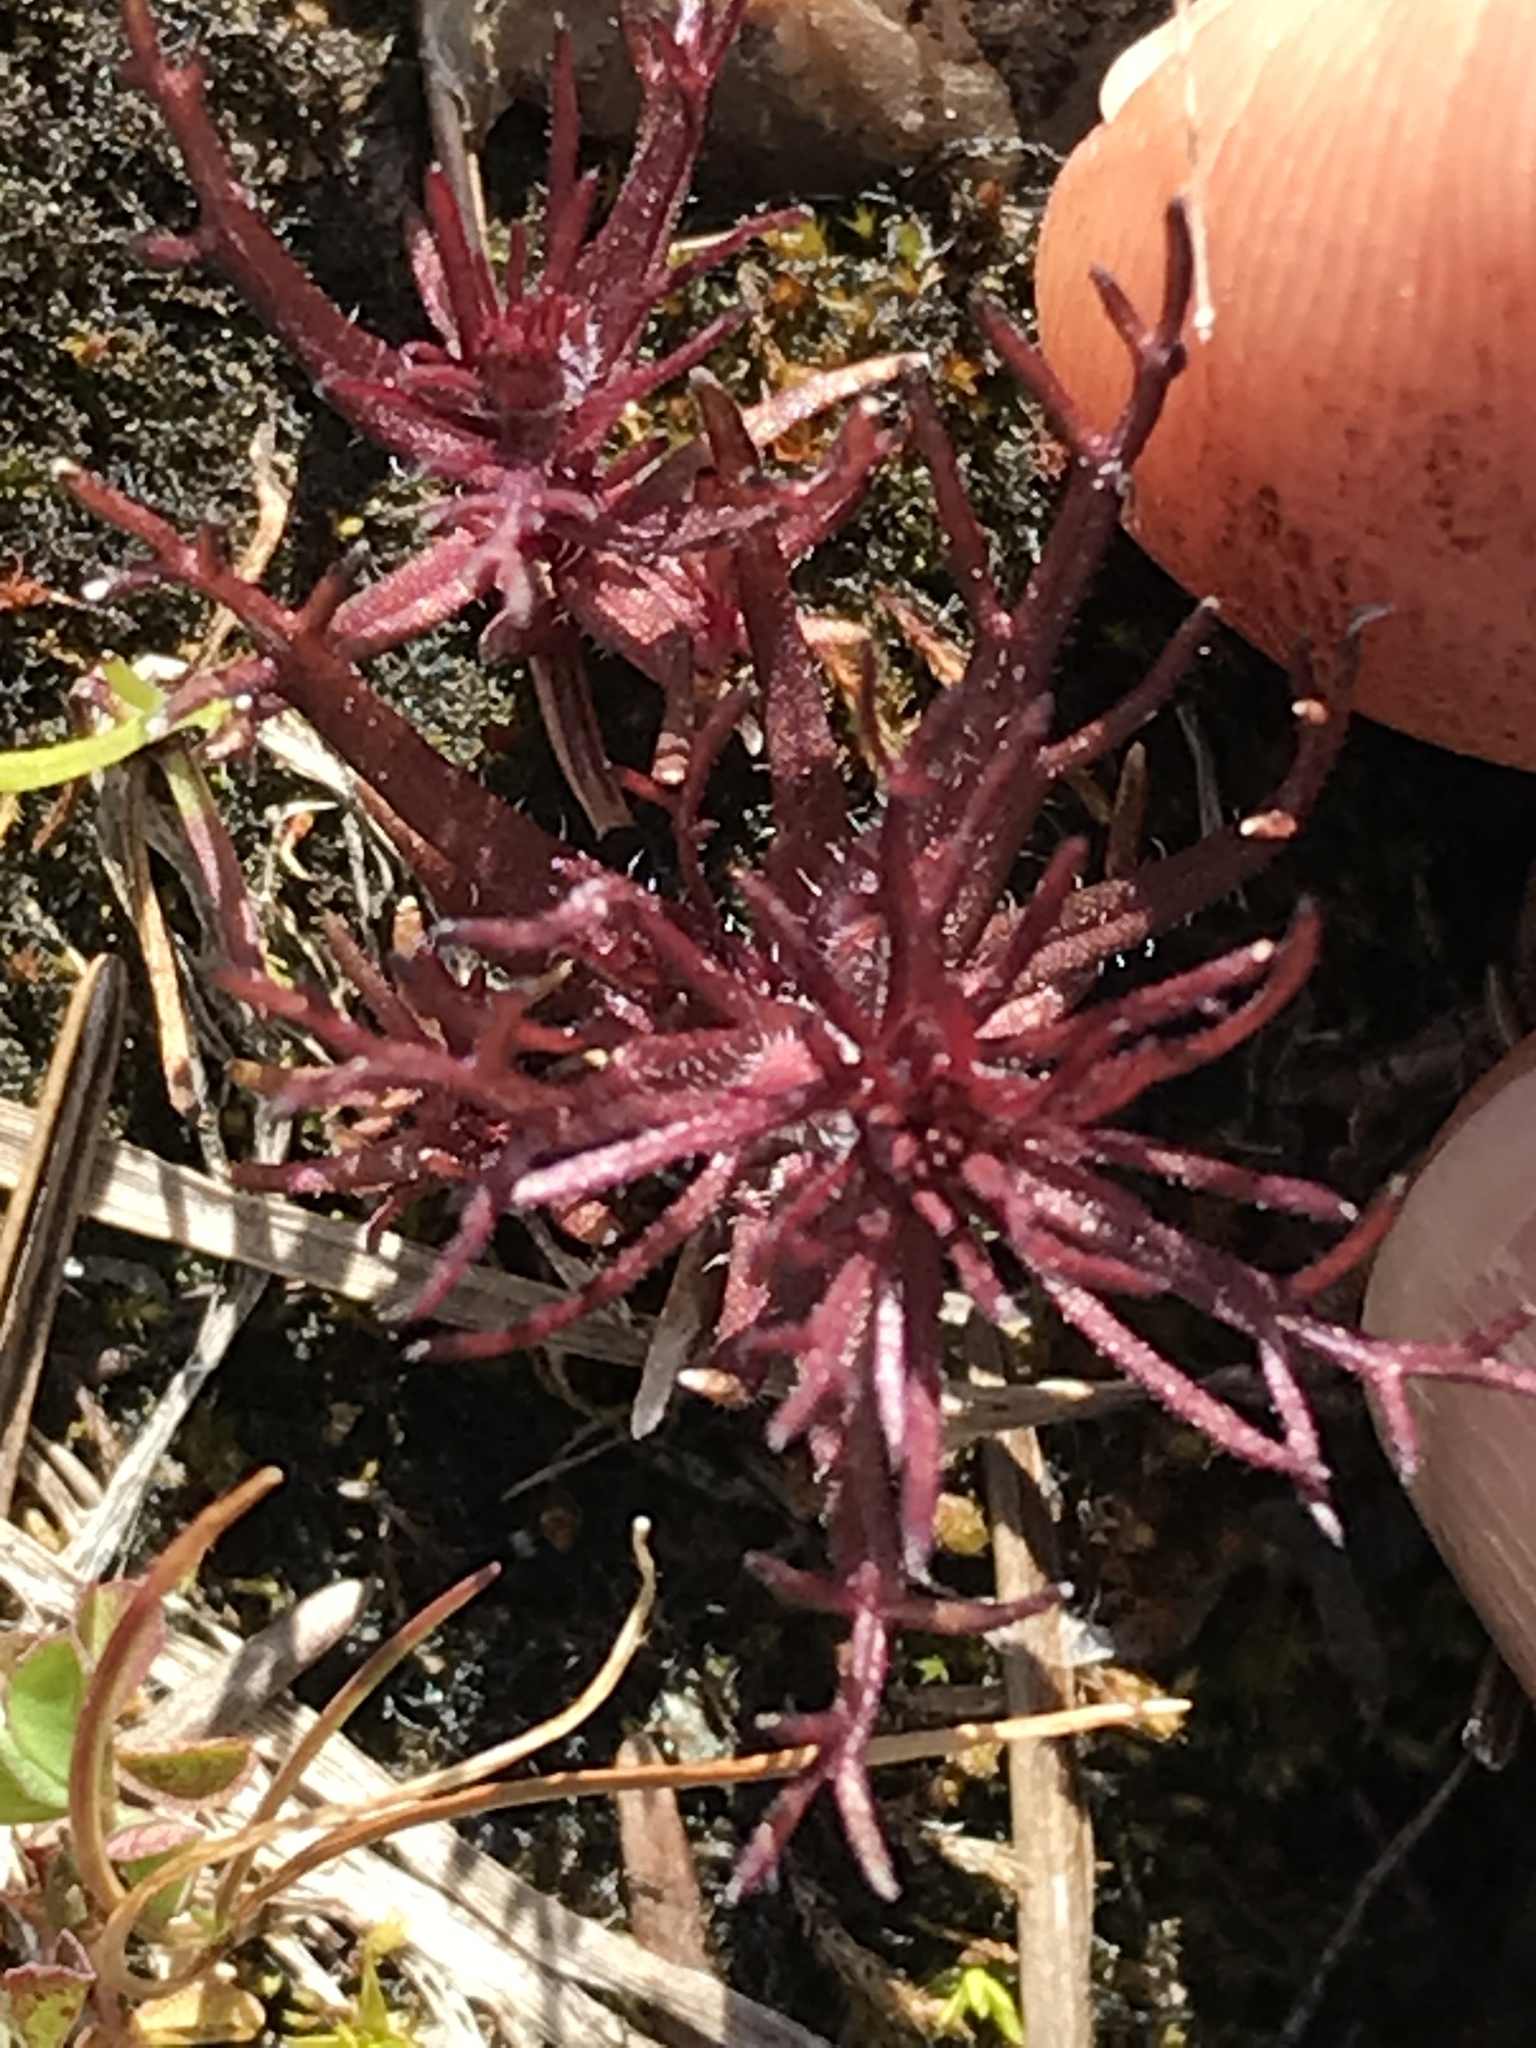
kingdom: Plantae
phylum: Tracheophyta
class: Magnoliopsida
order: Lamiales
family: Orobanchaceae
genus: Triphysaria
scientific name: Triphysaria pusilla
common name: Dwarf false owl-clover
